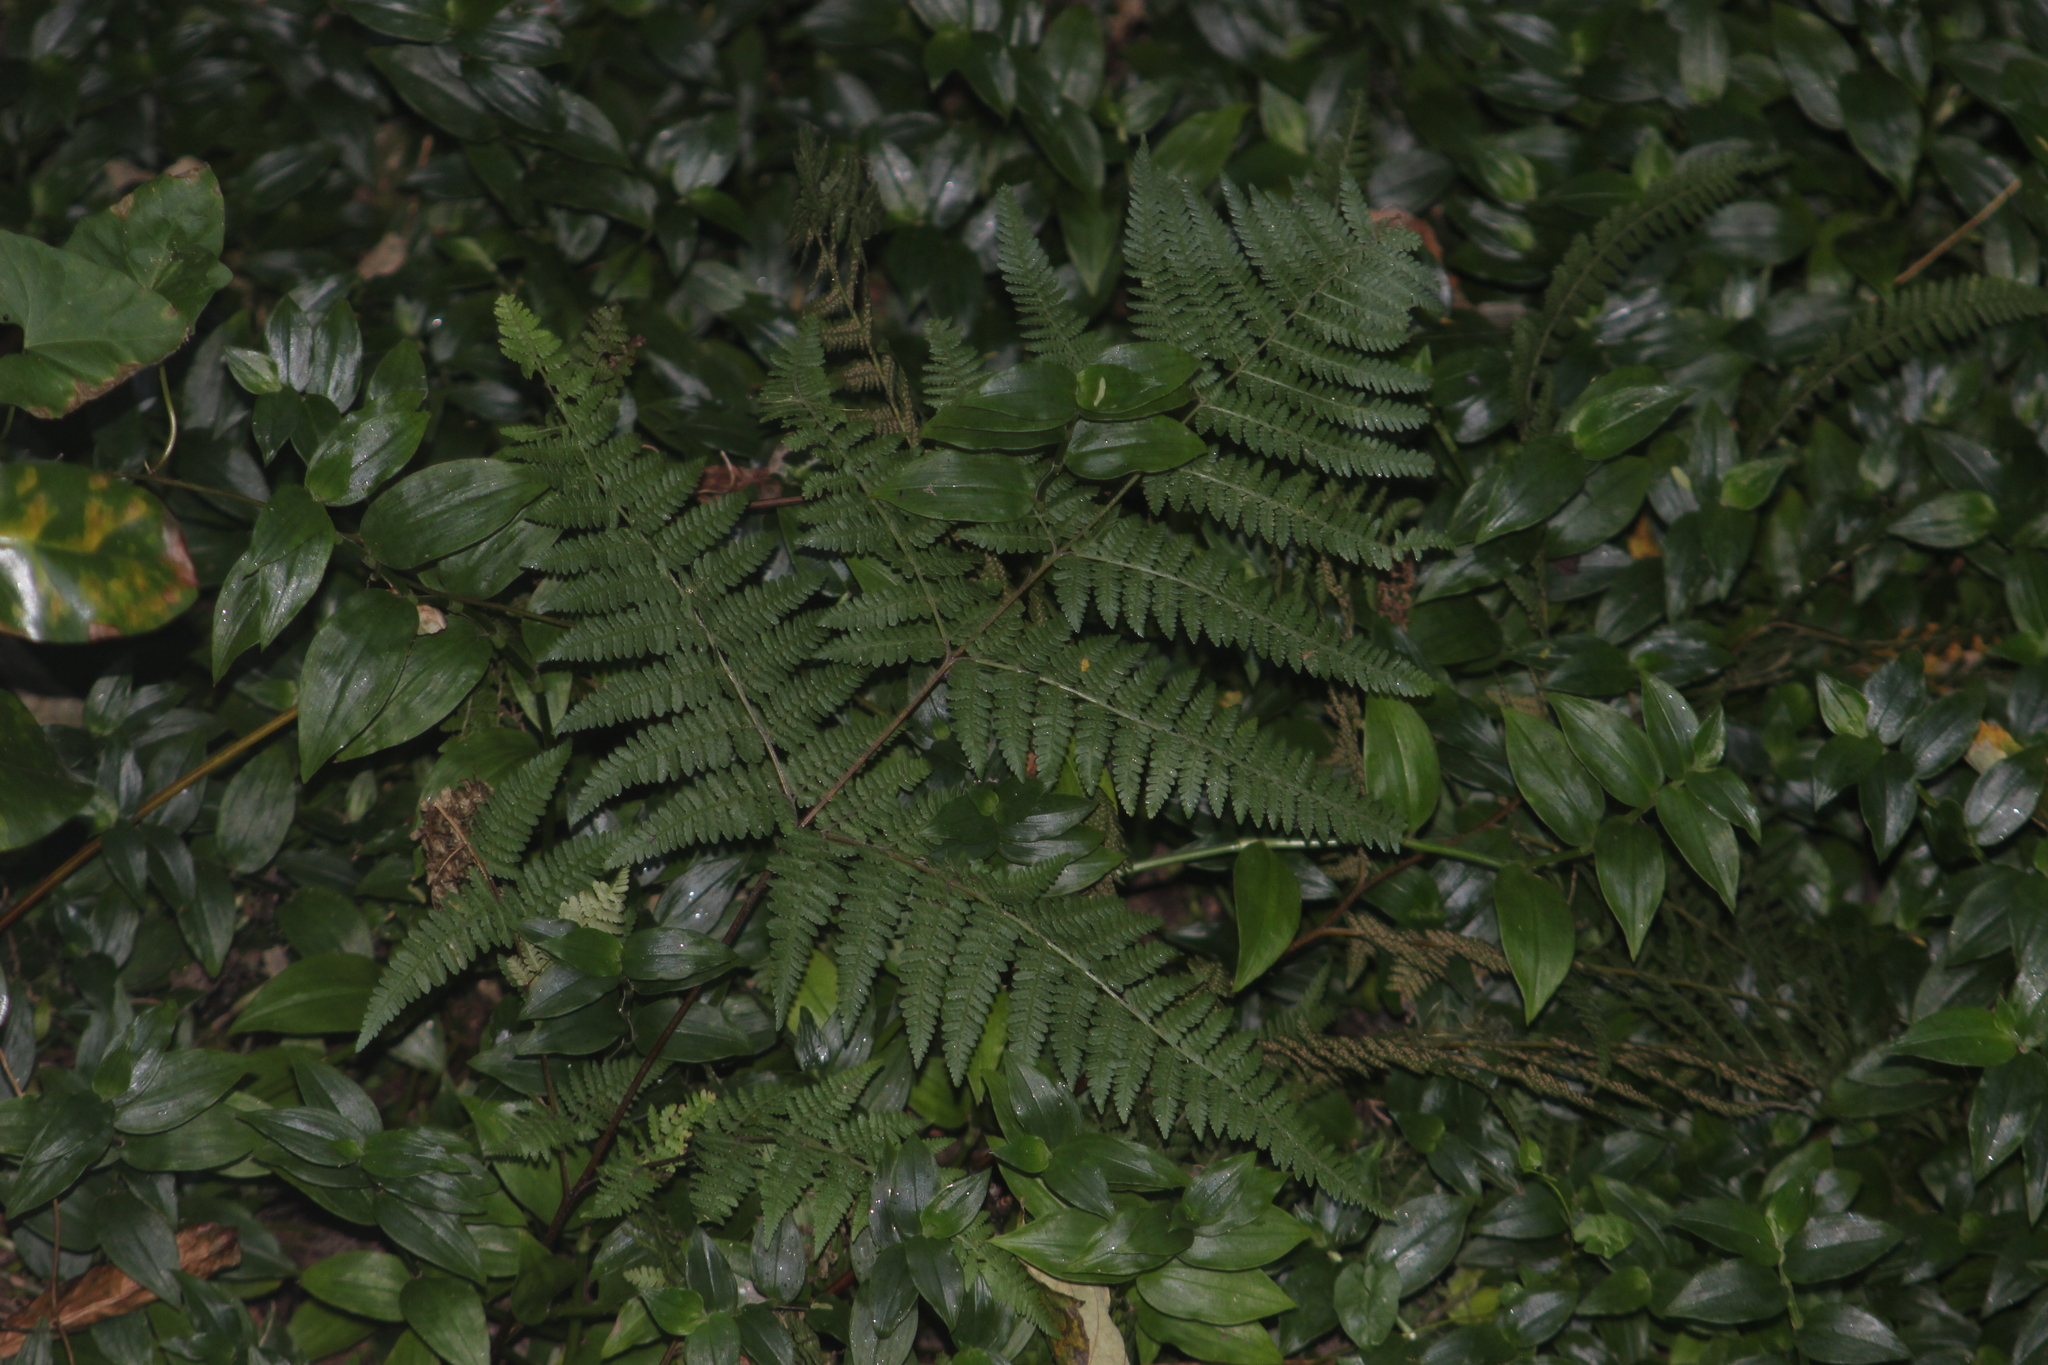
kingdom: Plantae
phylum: Tracheophyta
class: Polypodiopsida
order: Polypodiales
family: Dennstaedtiaceae
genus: Hypolepis
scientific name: Hypolepis ambigua
